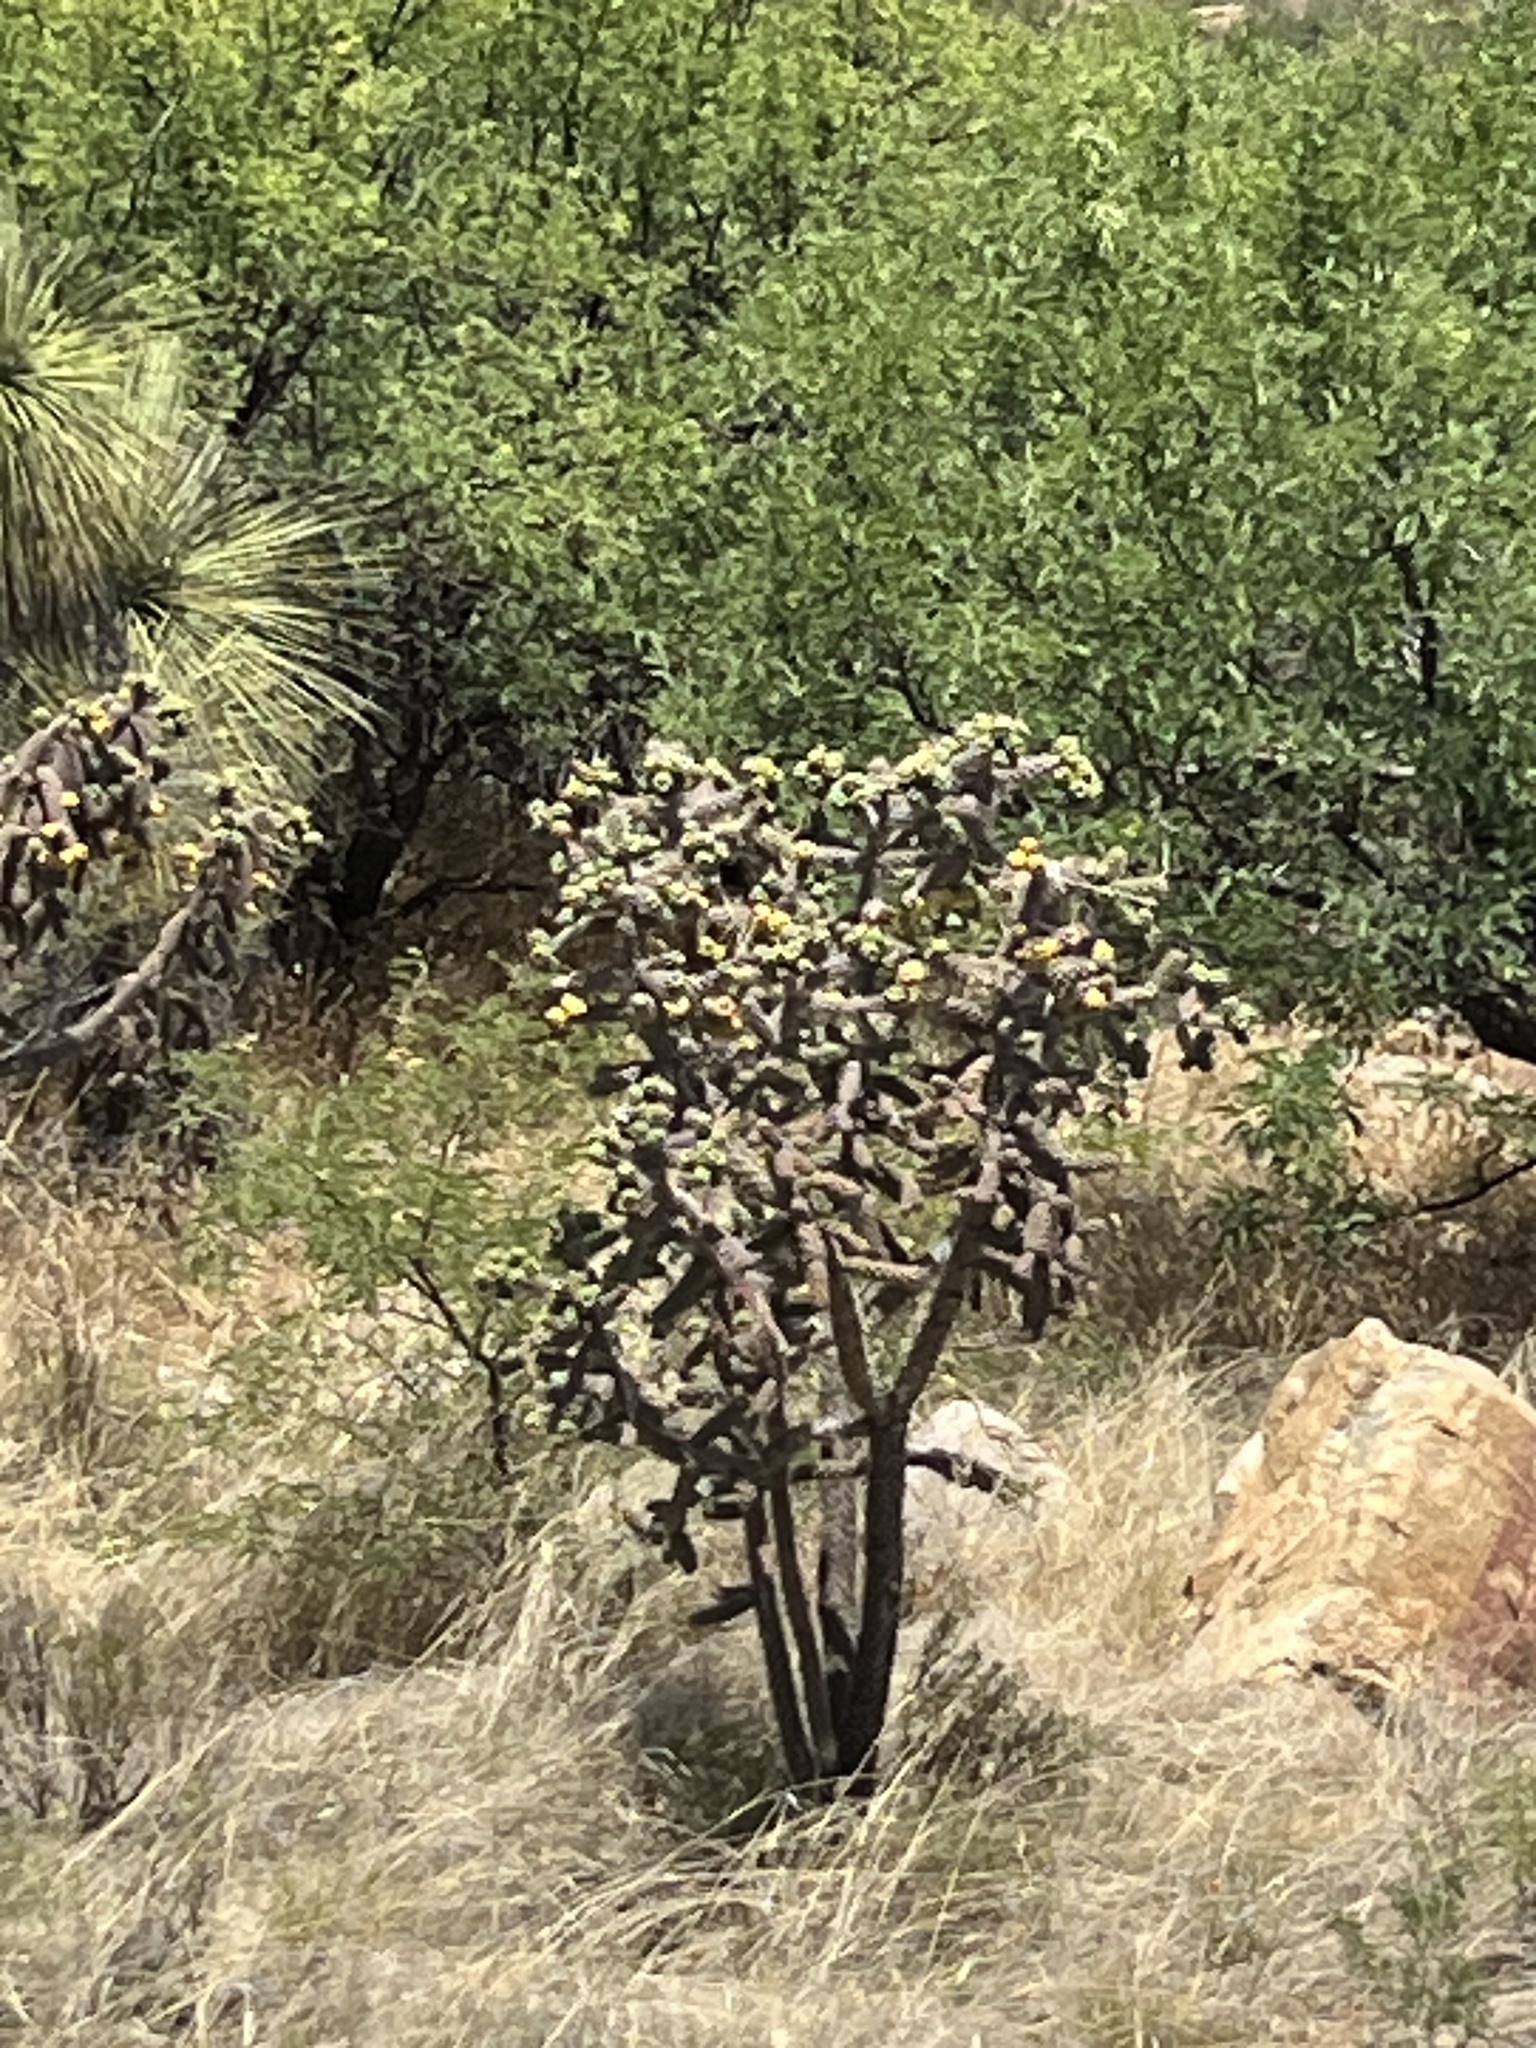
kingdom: Plantae
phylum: Tracheophyta
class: Magnoliopsida
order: Caryophyllales
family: Cactaceae
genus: Cylindropuntia
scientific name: Cylindropuntia imbricata
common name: Candelabrum cactus
